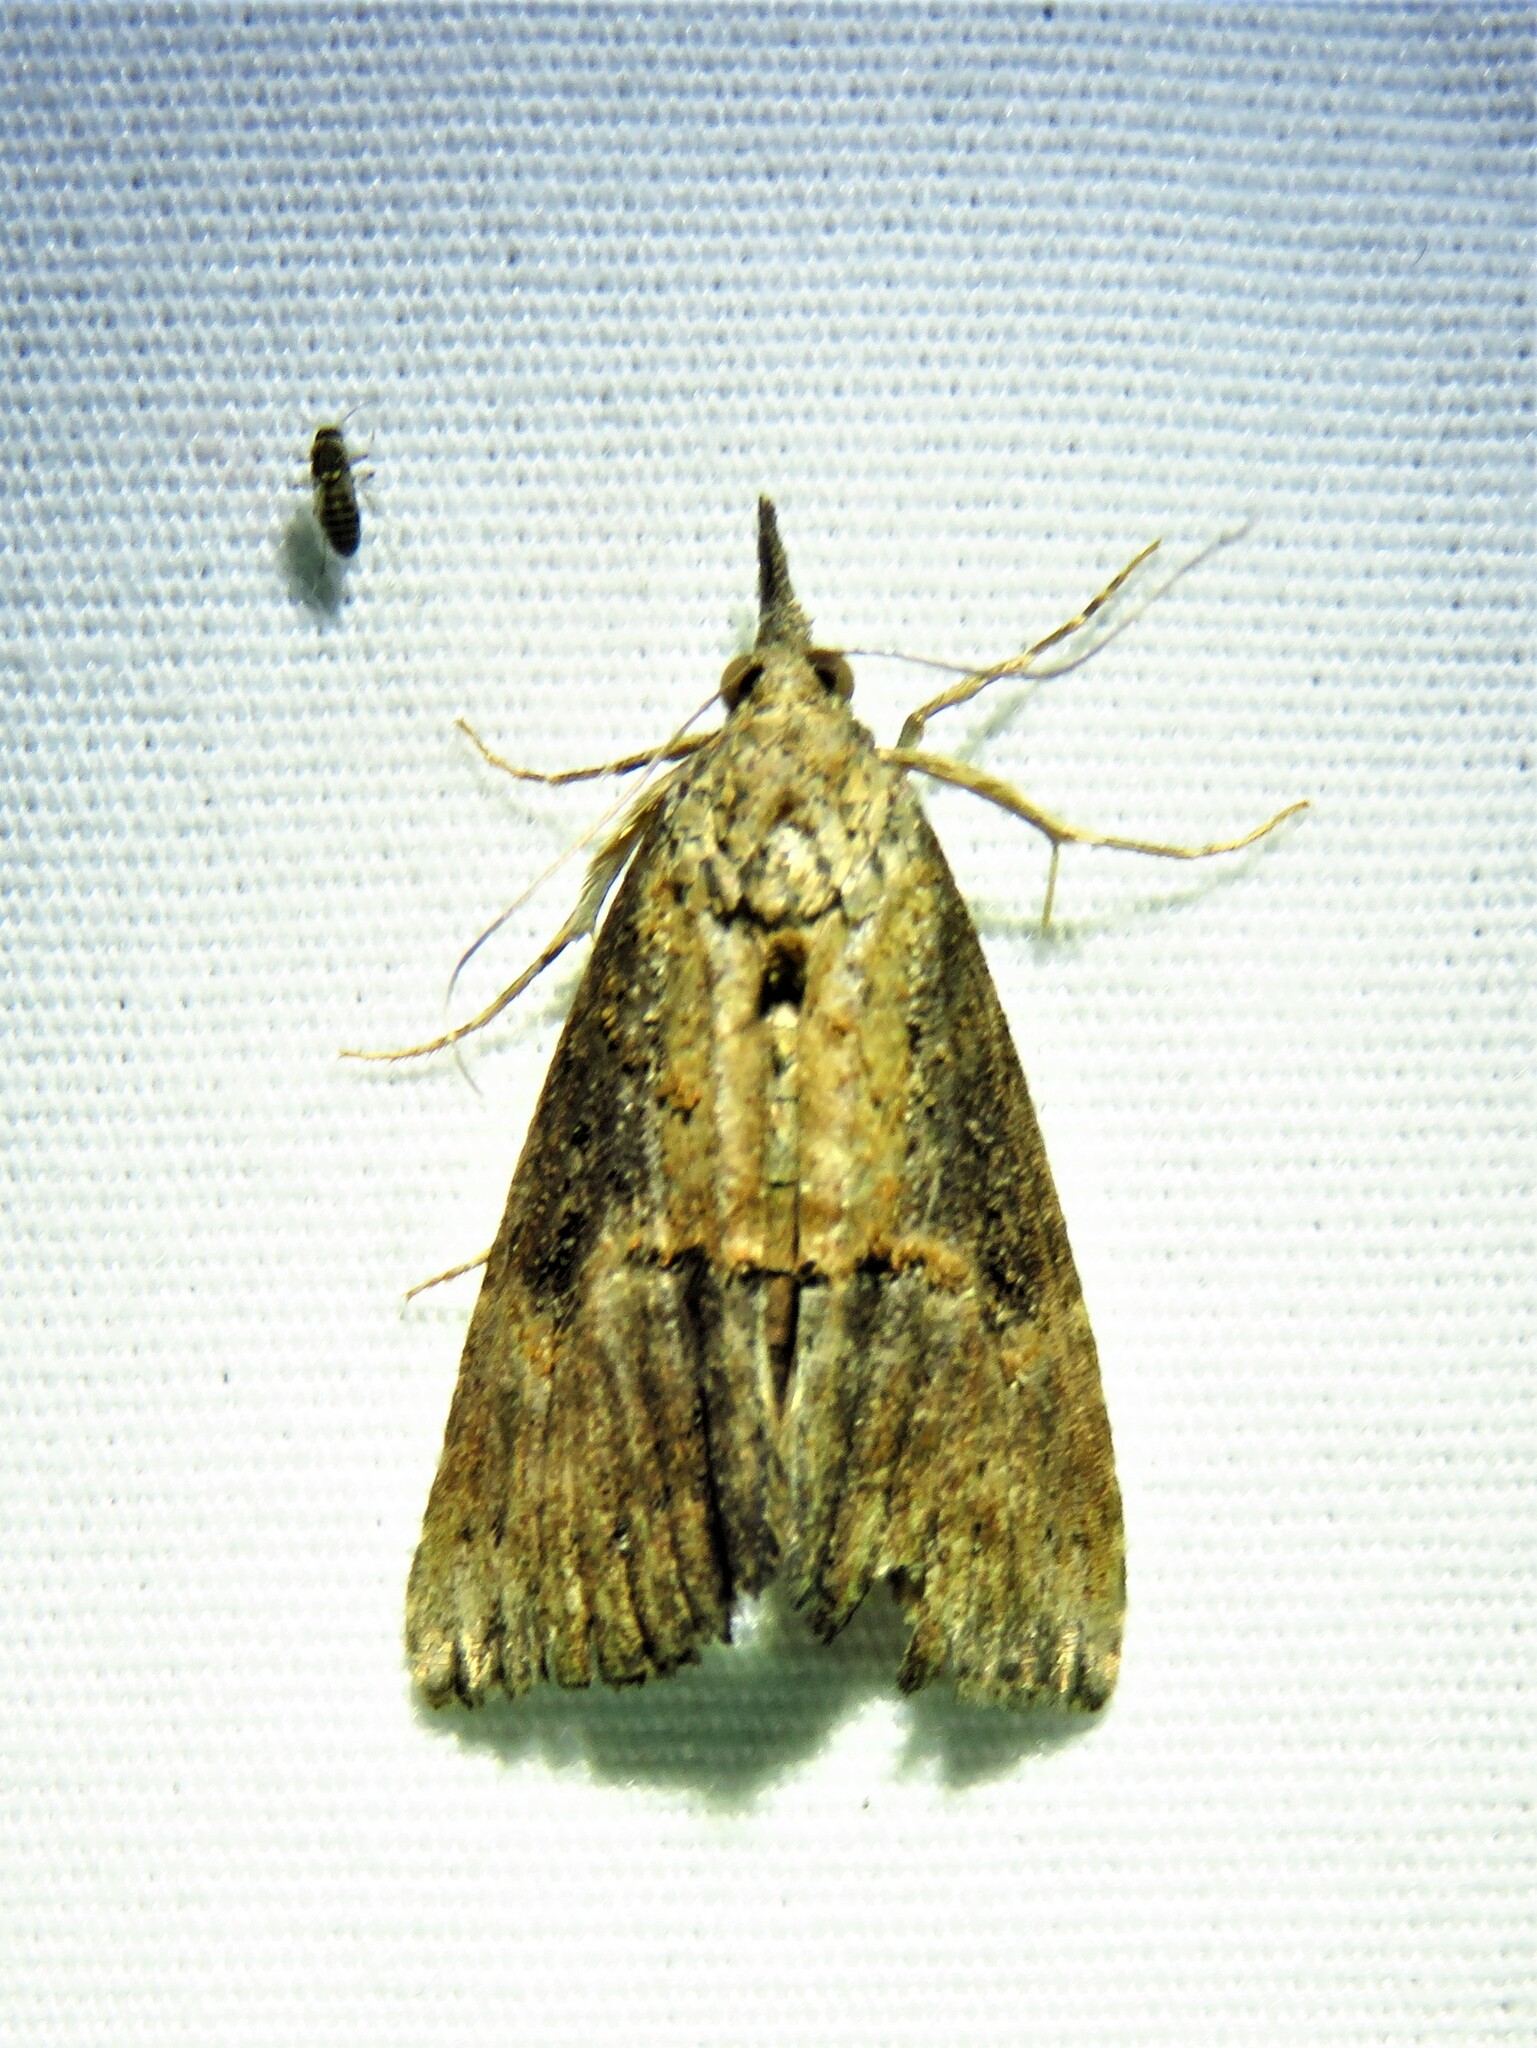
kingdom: Animalia
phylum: Arthropoda
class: Insecta
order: Lepidoptera
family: Erebidae
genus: Hypena
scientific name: Hypena scabra
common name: Green cloverworm
